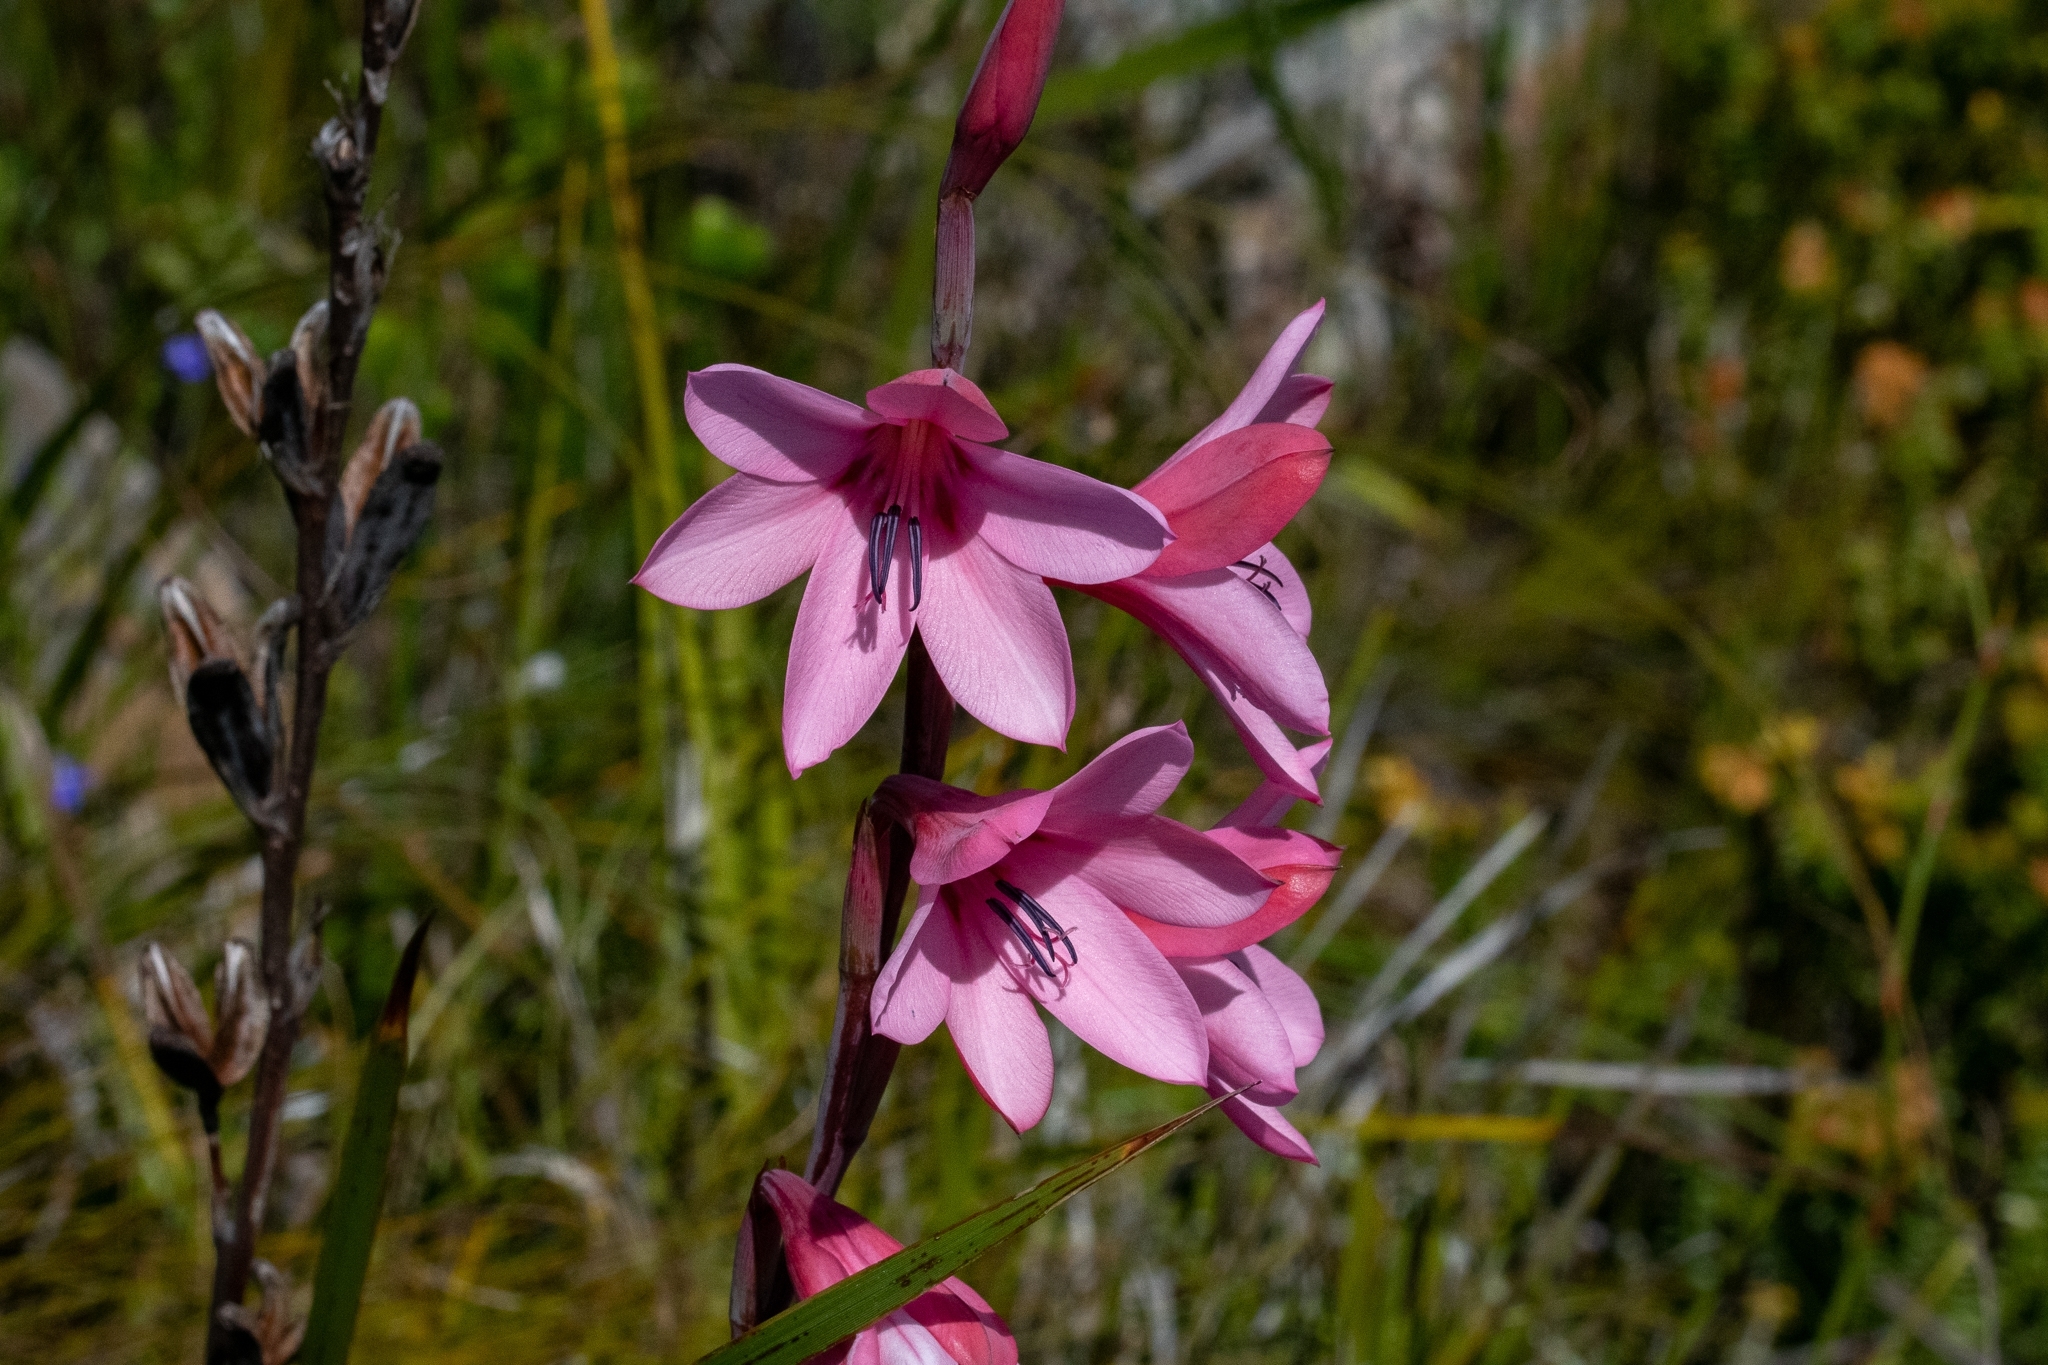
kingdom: Plantae
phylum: Tracheophyta
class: Liliopsida
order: Asparagales
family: Iridaceae
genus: Watsonia
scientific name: Watsonia borbonica
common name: Bugle-lily
